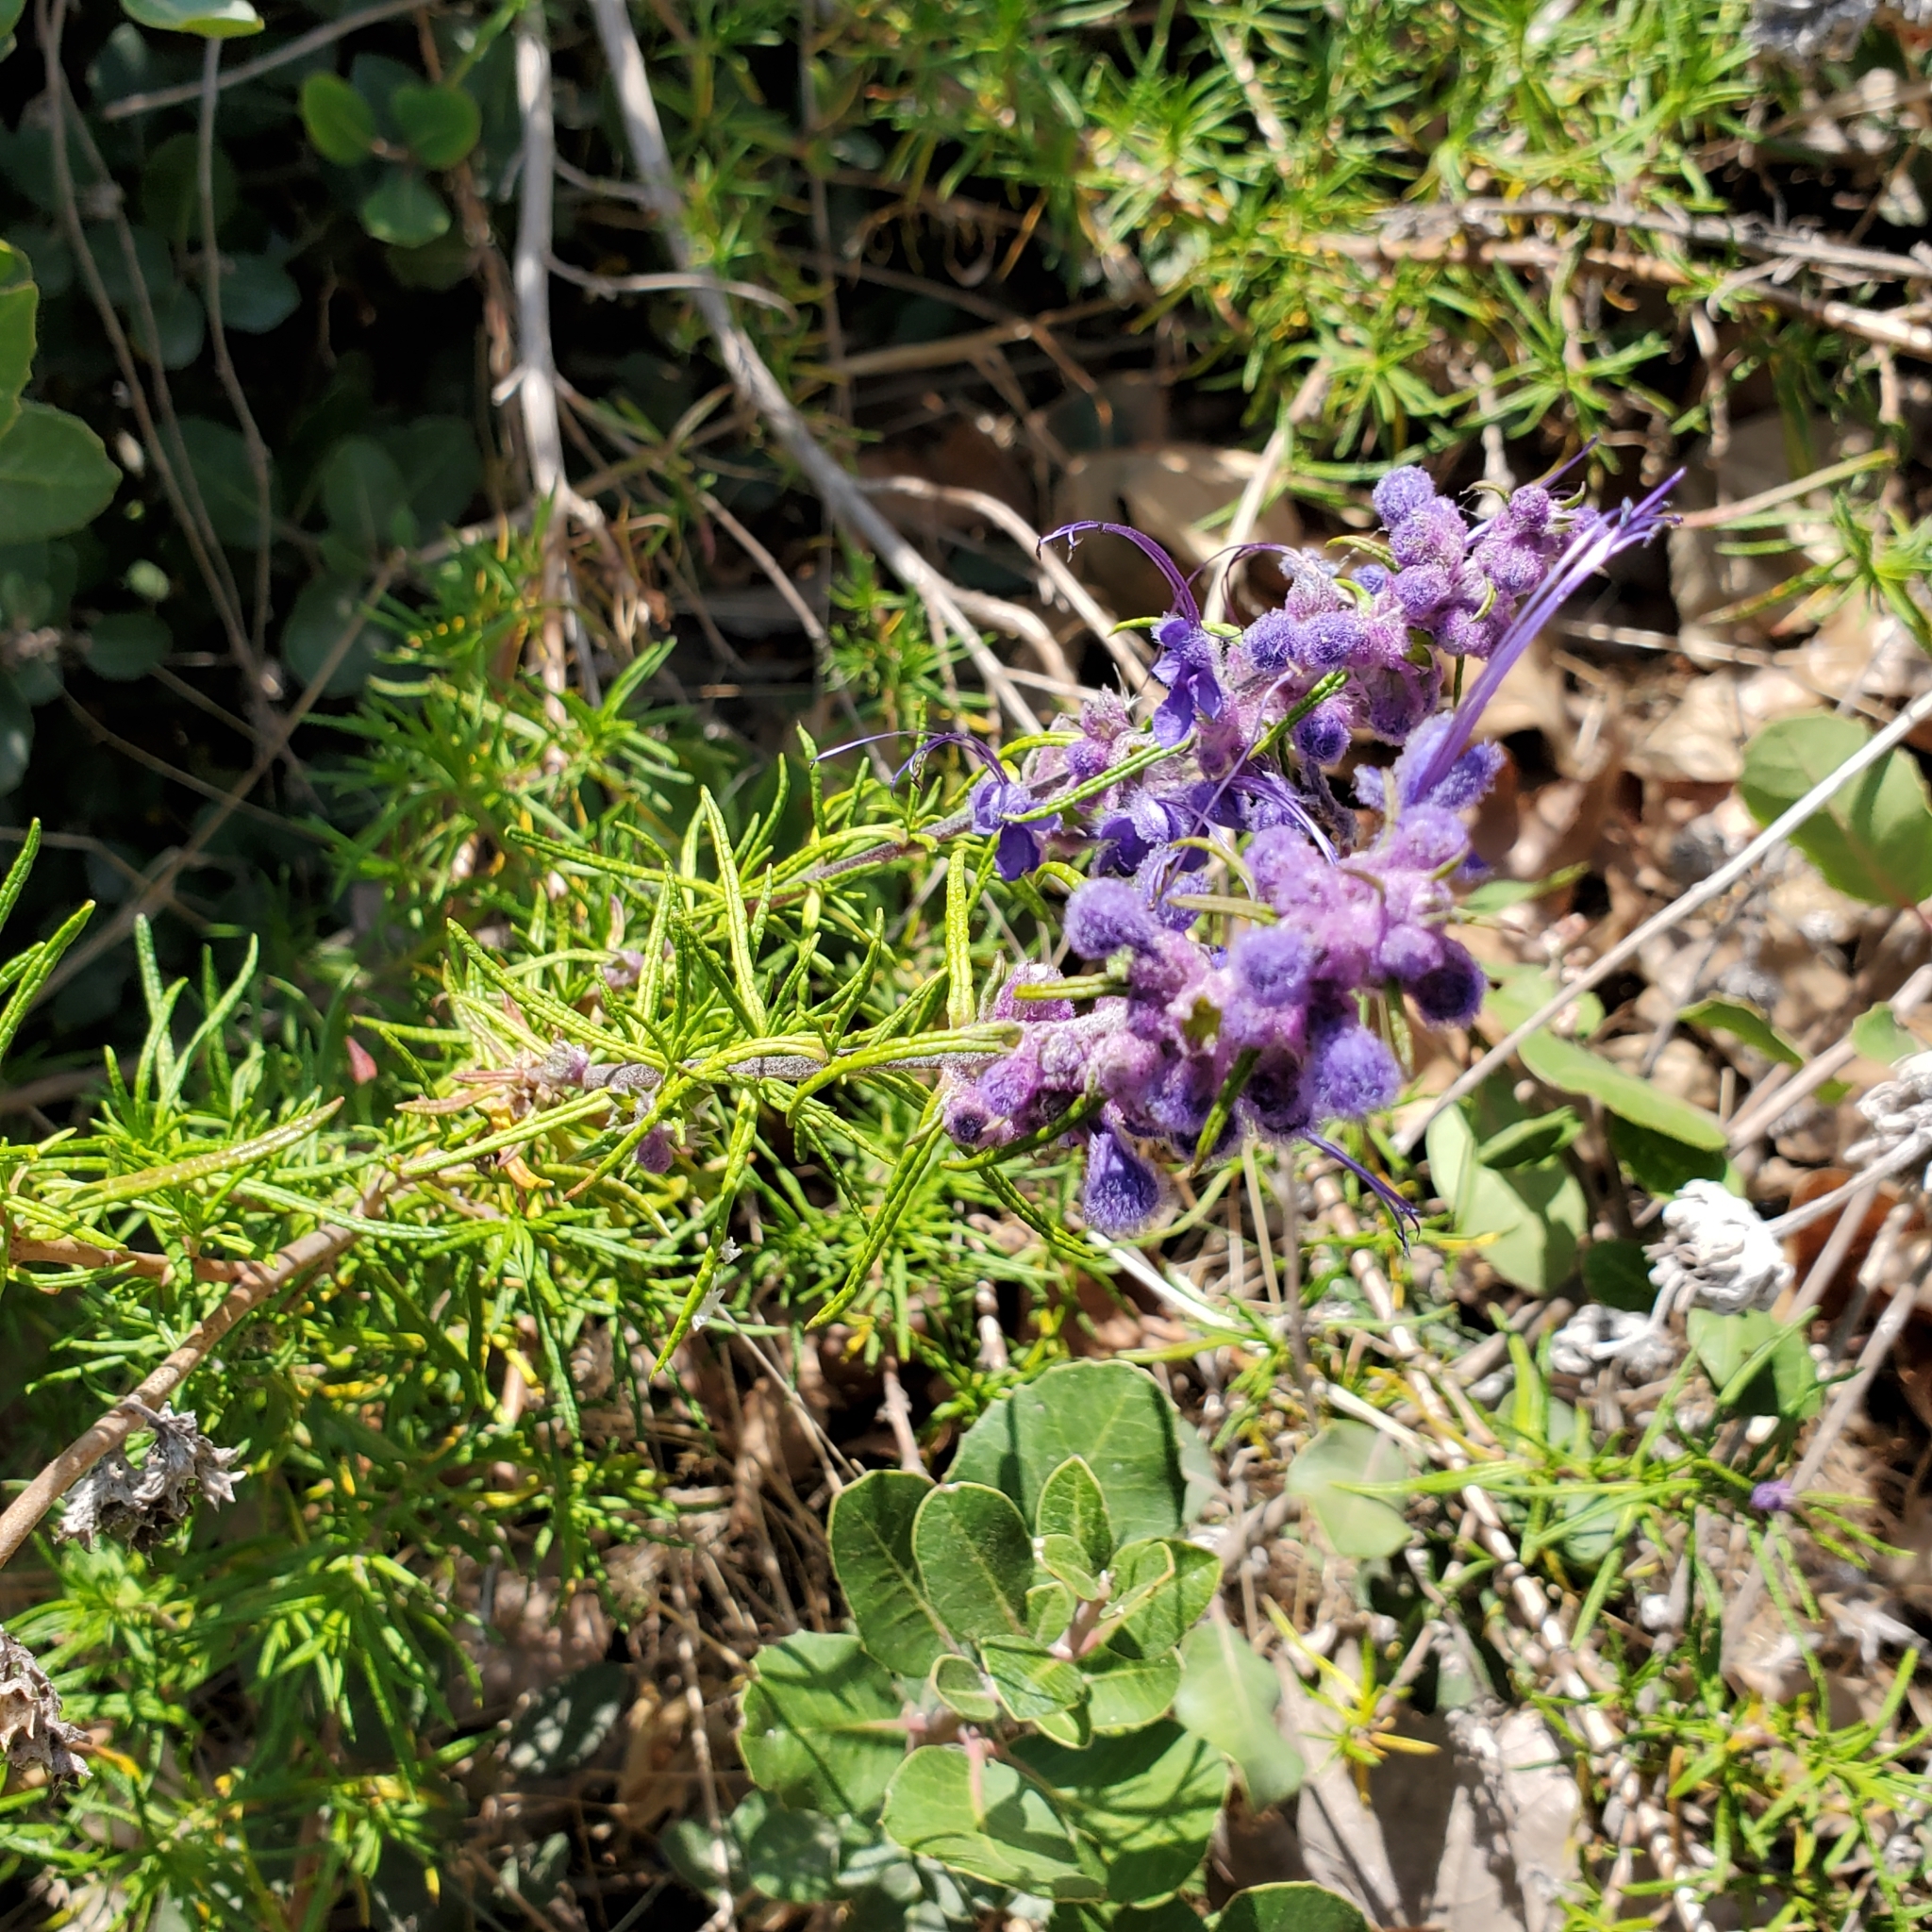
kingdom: Plantae
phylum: Tracheophyta
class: Magnoliopsida
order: Lamiales
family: Lamiaceae
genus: Trichostema
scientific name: Trichostema lanatum
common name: Woolly bluecurls
